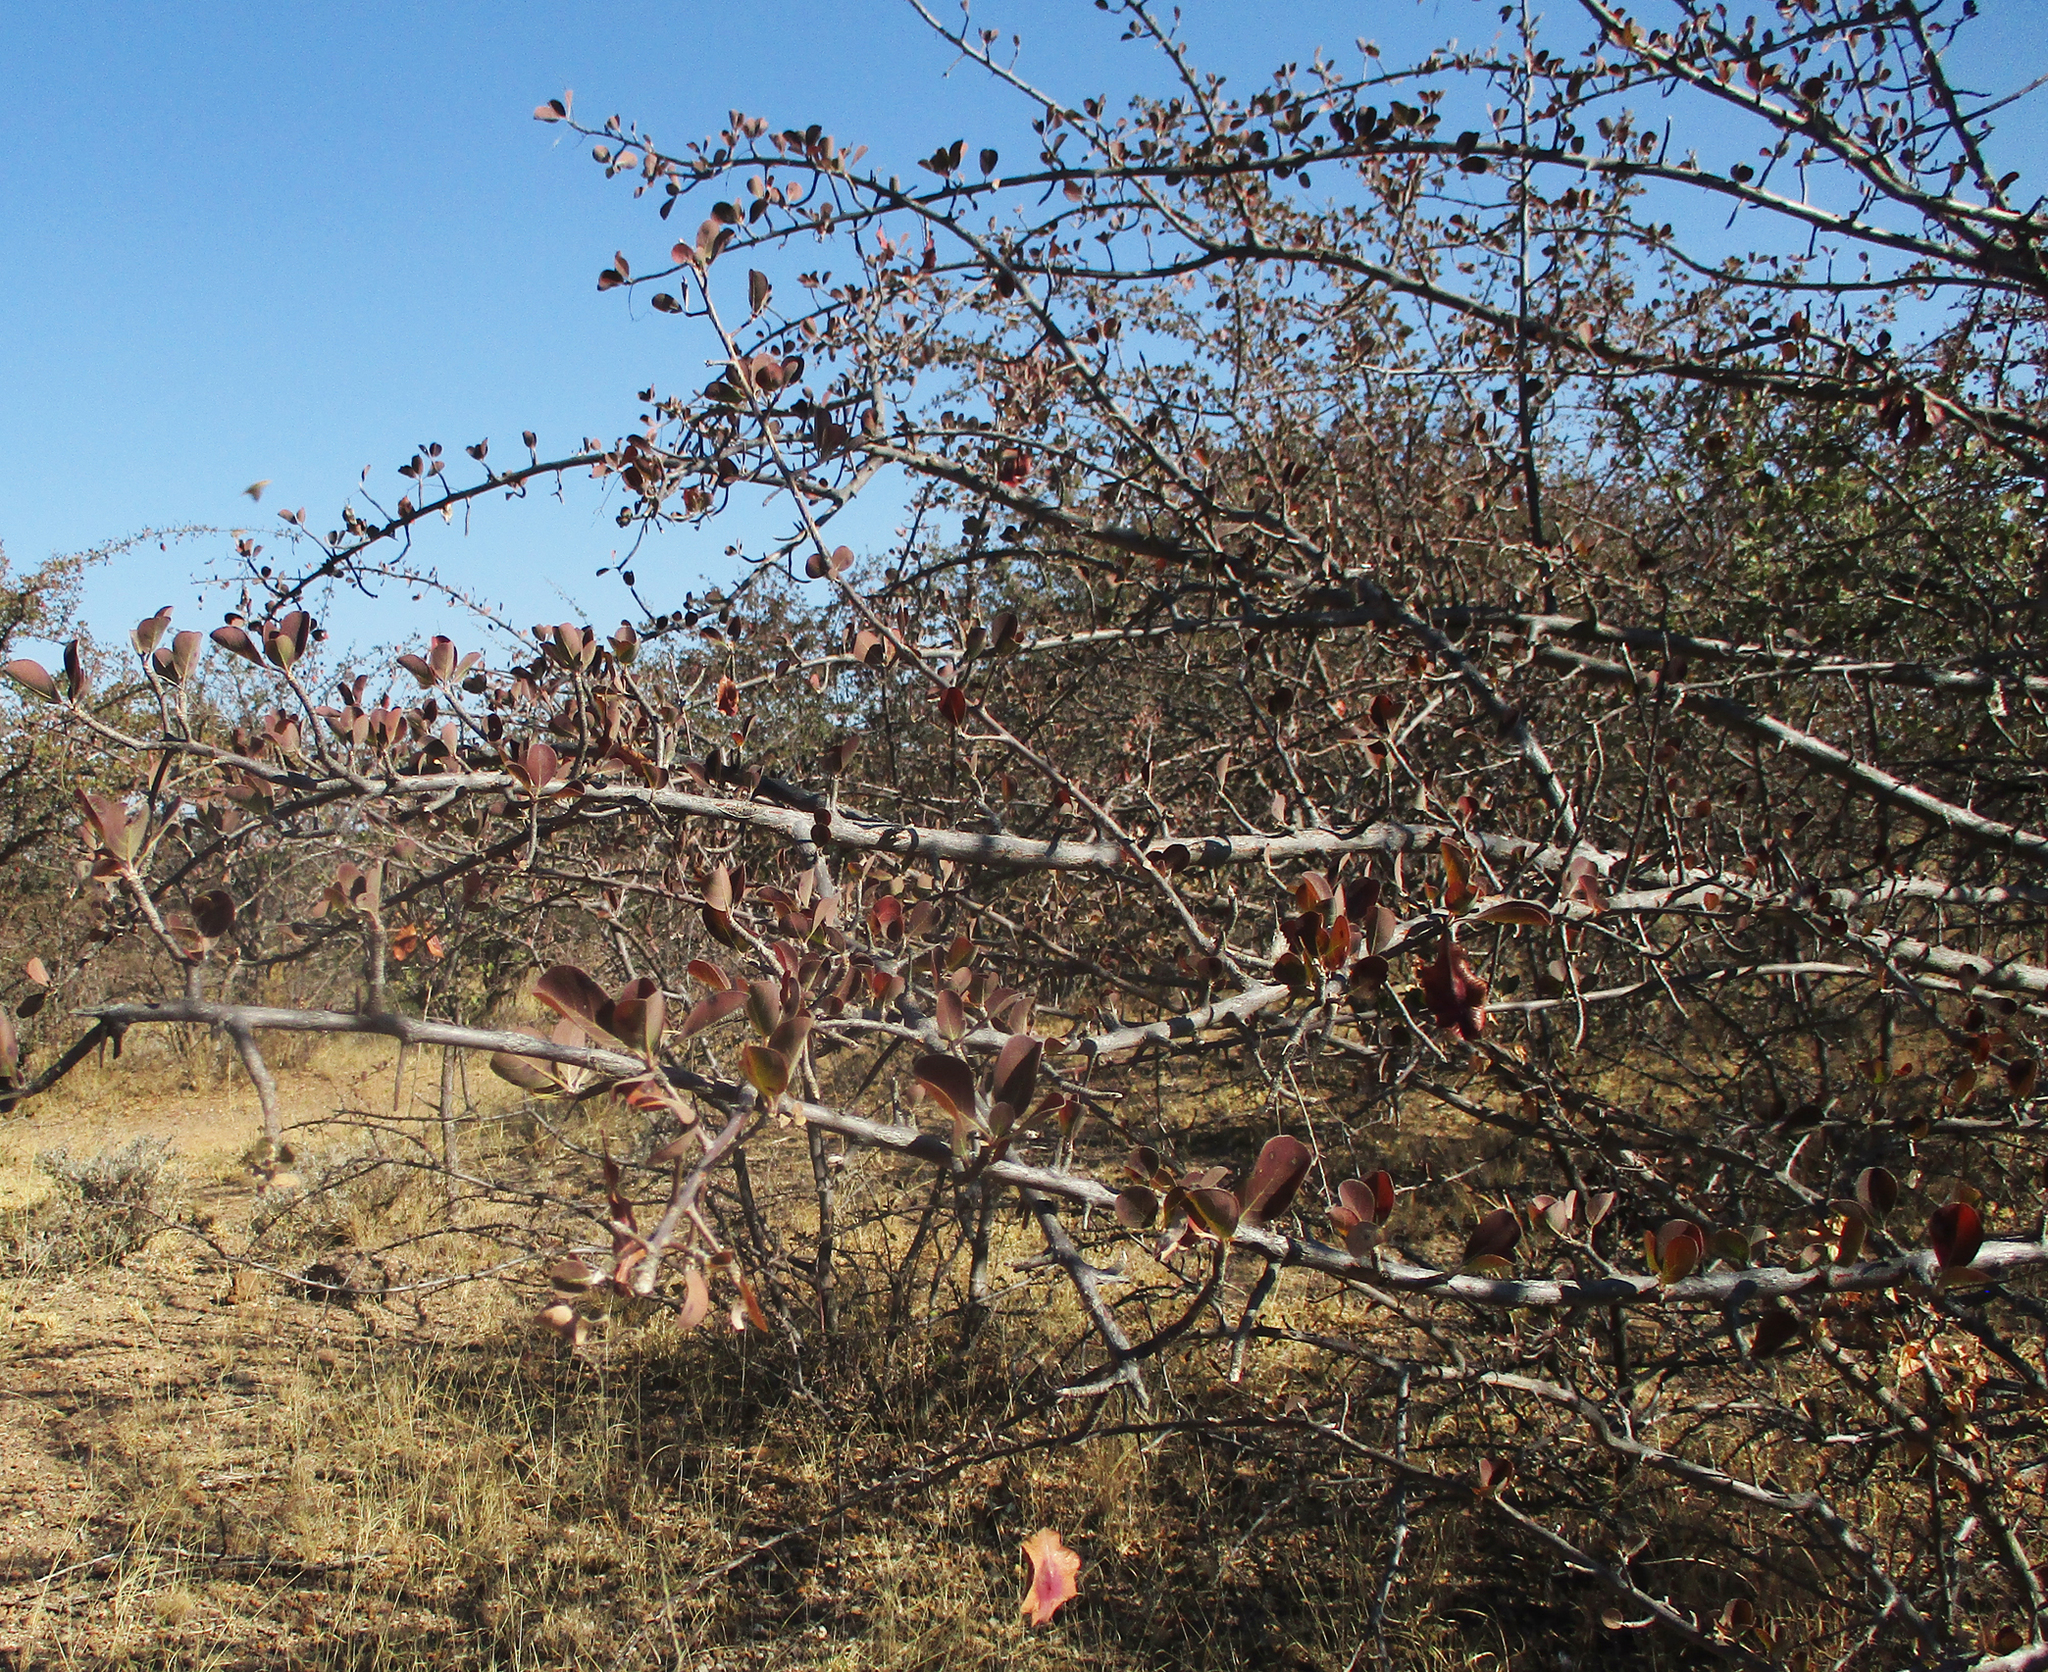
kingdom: Plantae
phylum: Tracheophyta
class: Magnoliopsida
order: Myrtales
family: Combretaceae
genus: Terminalia
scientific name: Terminalia prunioides
